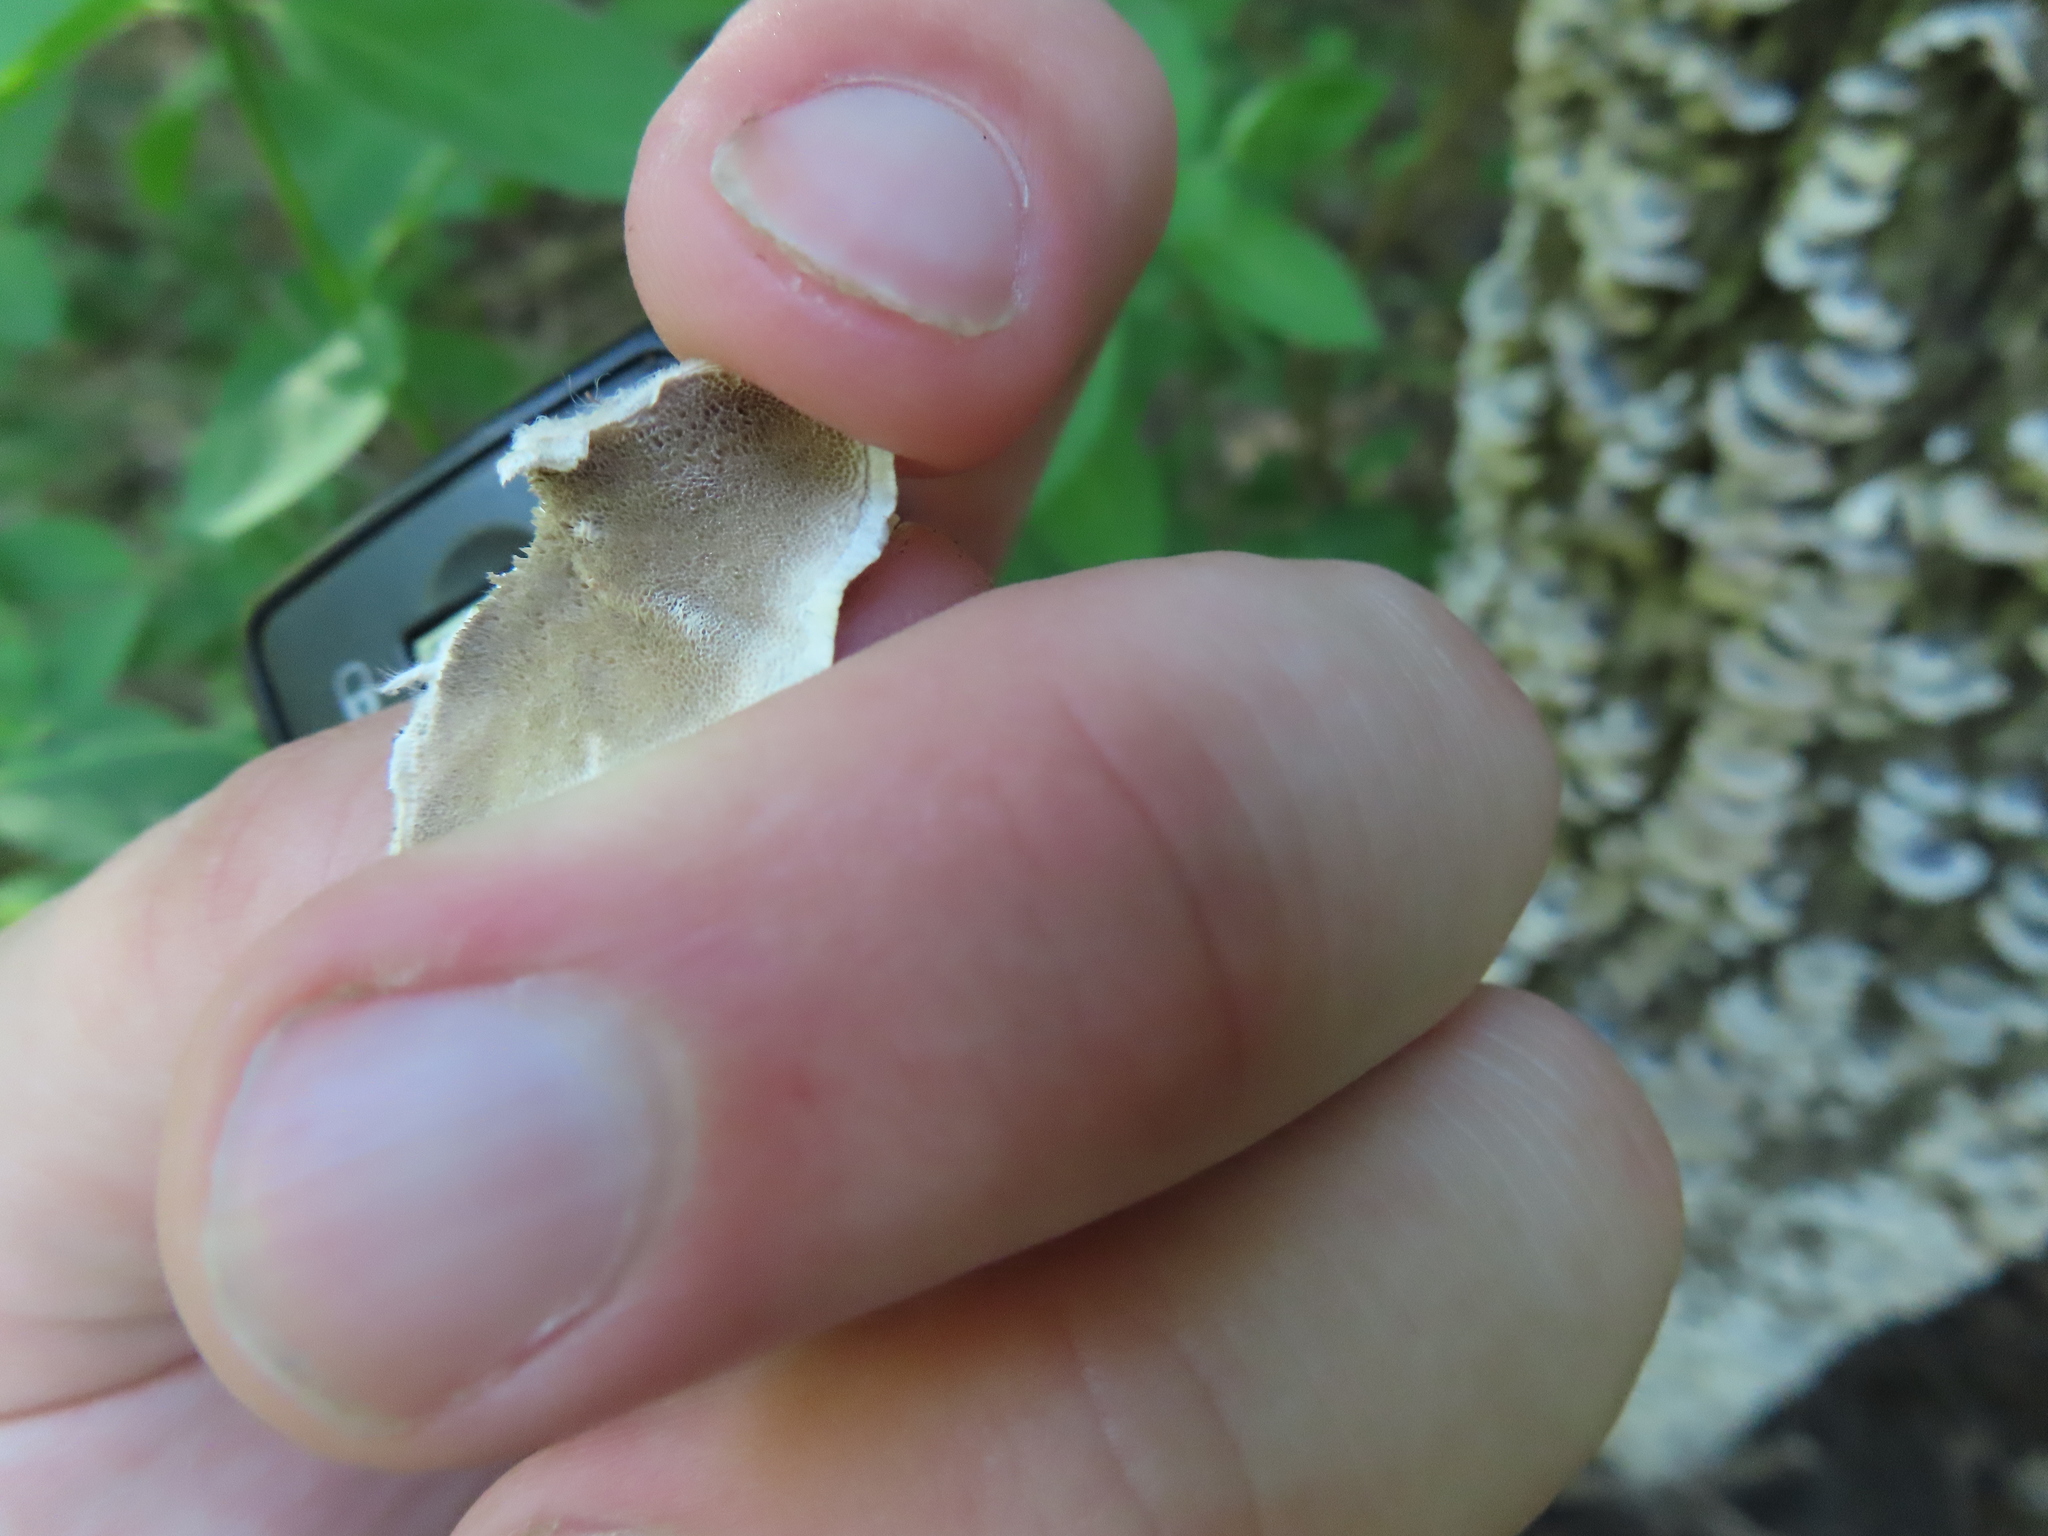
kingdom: Fungi
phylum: Basidiomycota
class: Agaricomycetes
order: Polyporales
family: Polyporaceae
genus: Trametes
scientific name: Trametes versicolor
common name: Turkeytail
